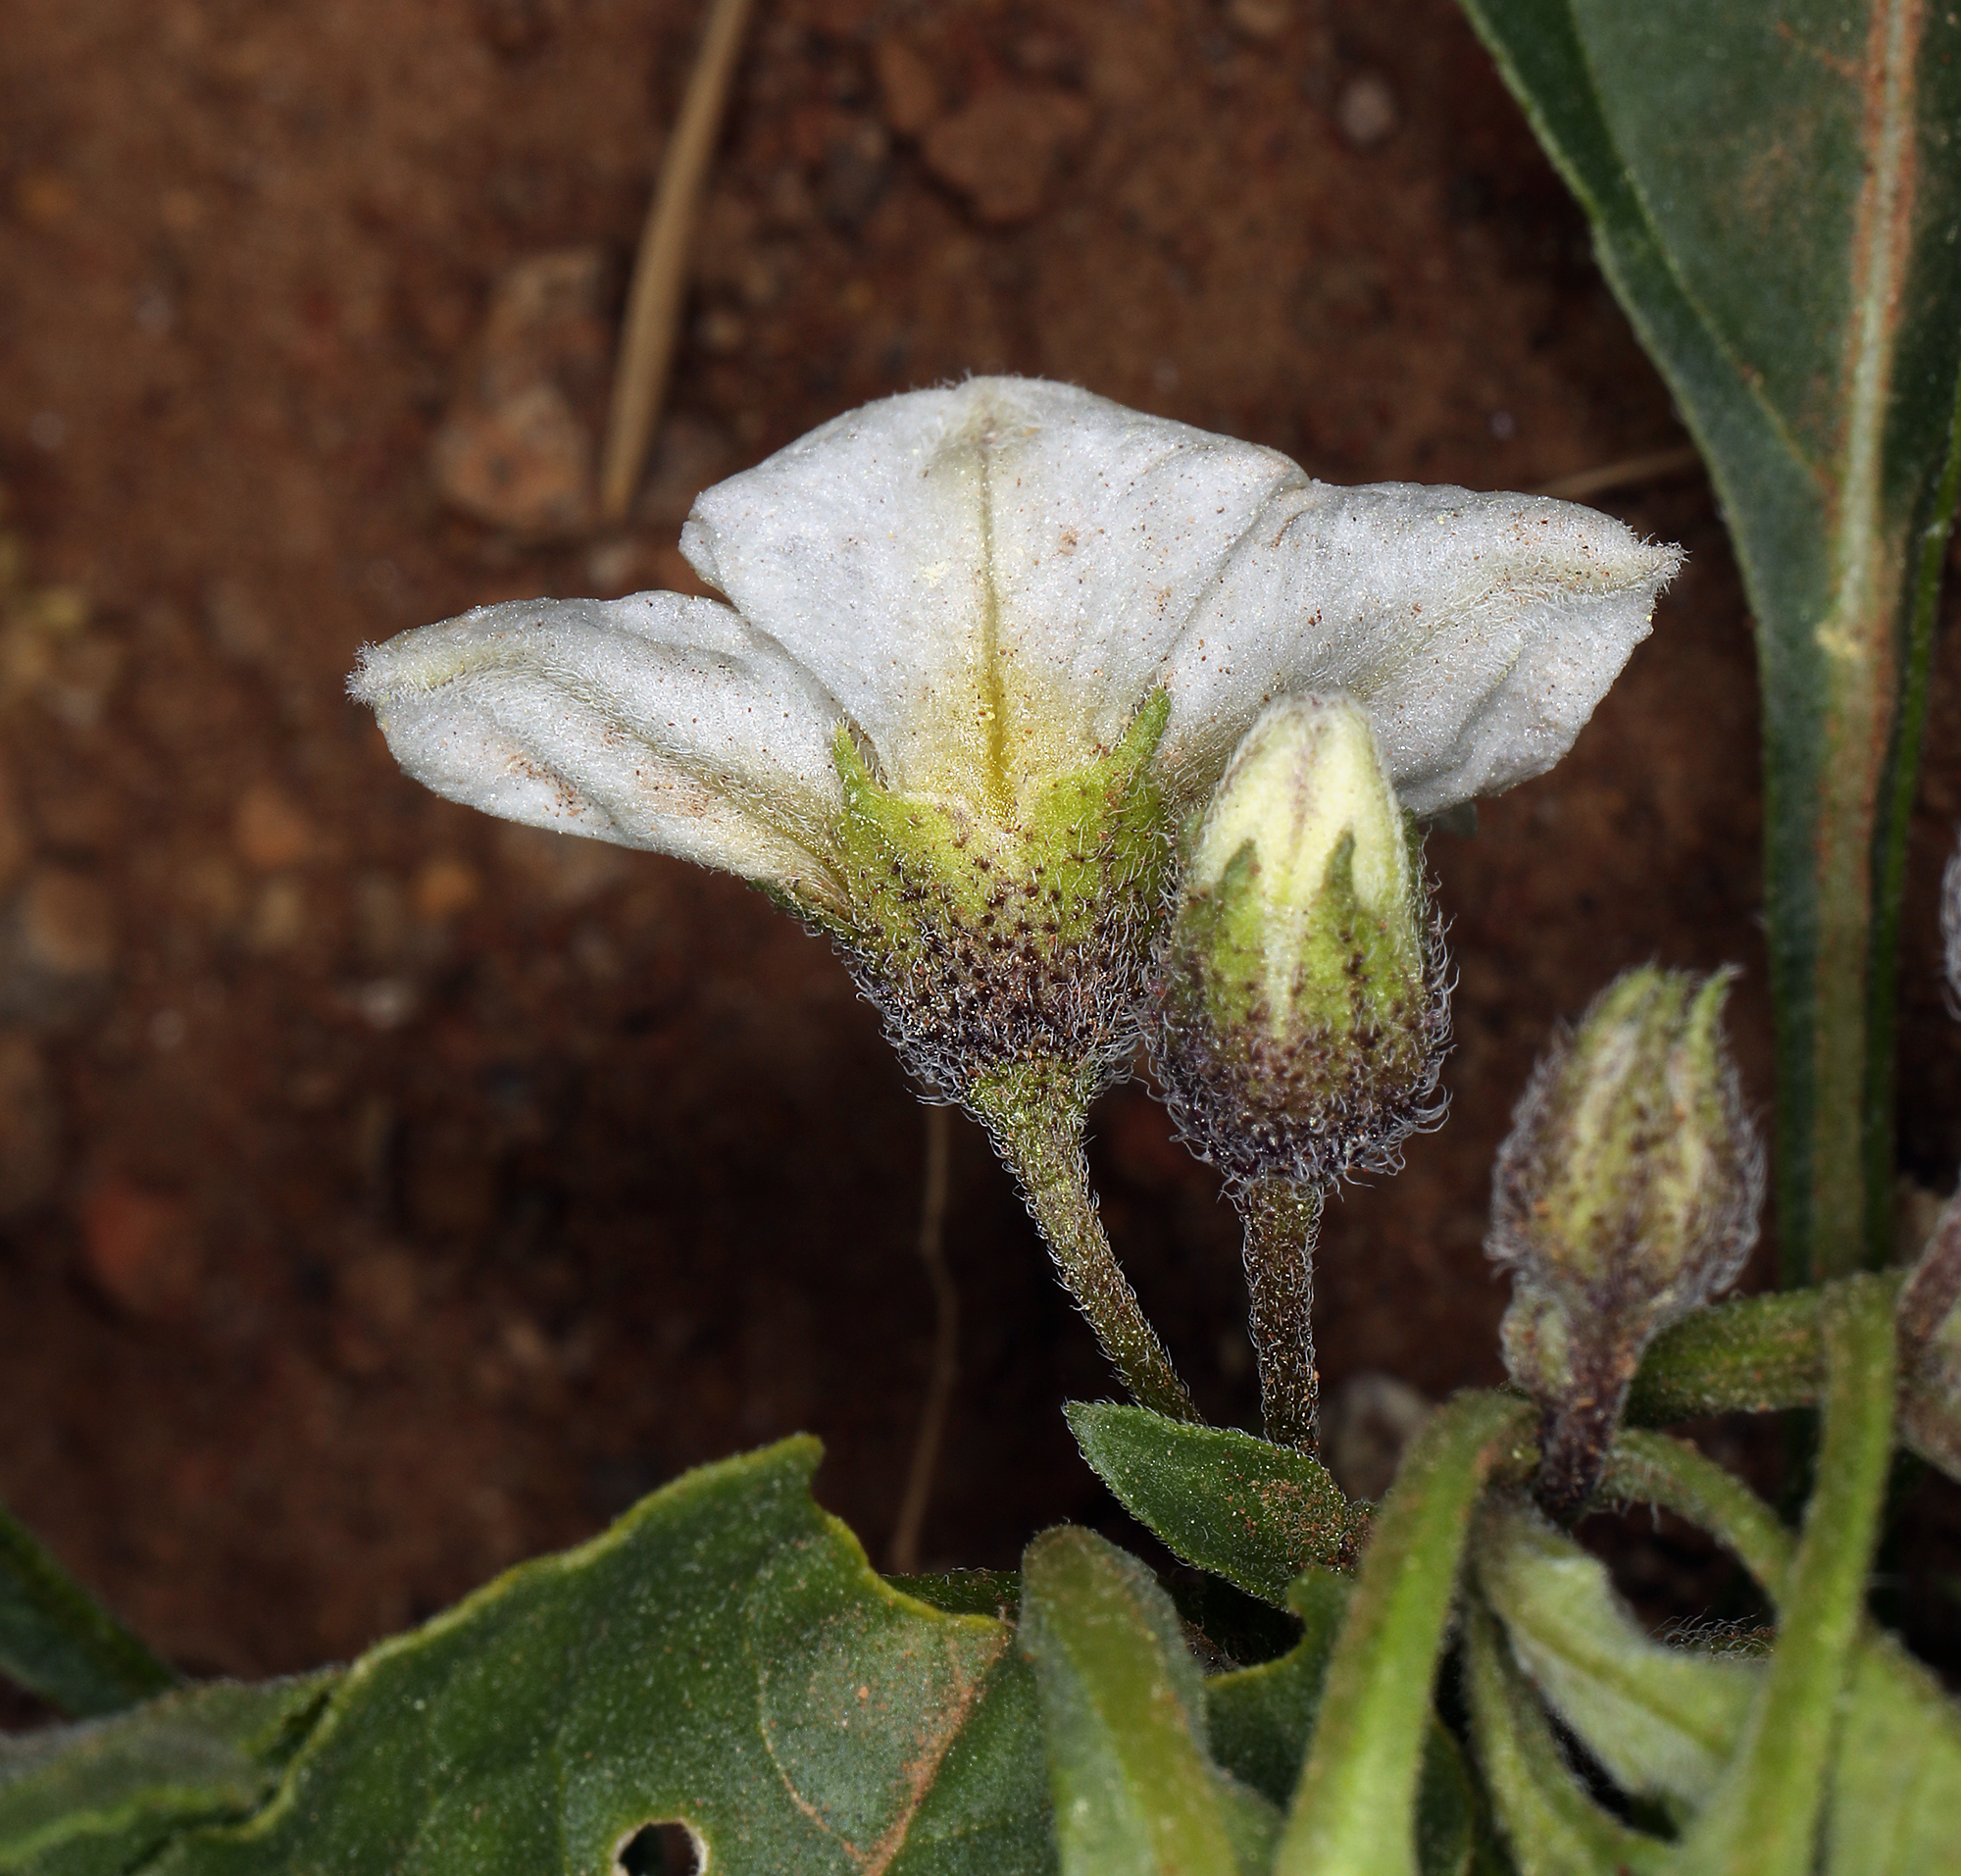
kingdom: Plantae
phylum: Tracheophyta
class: Magnoliopsida
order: Solanales
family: Solanaceae
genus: Leucophysalis
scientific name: Leucophysalis nana
